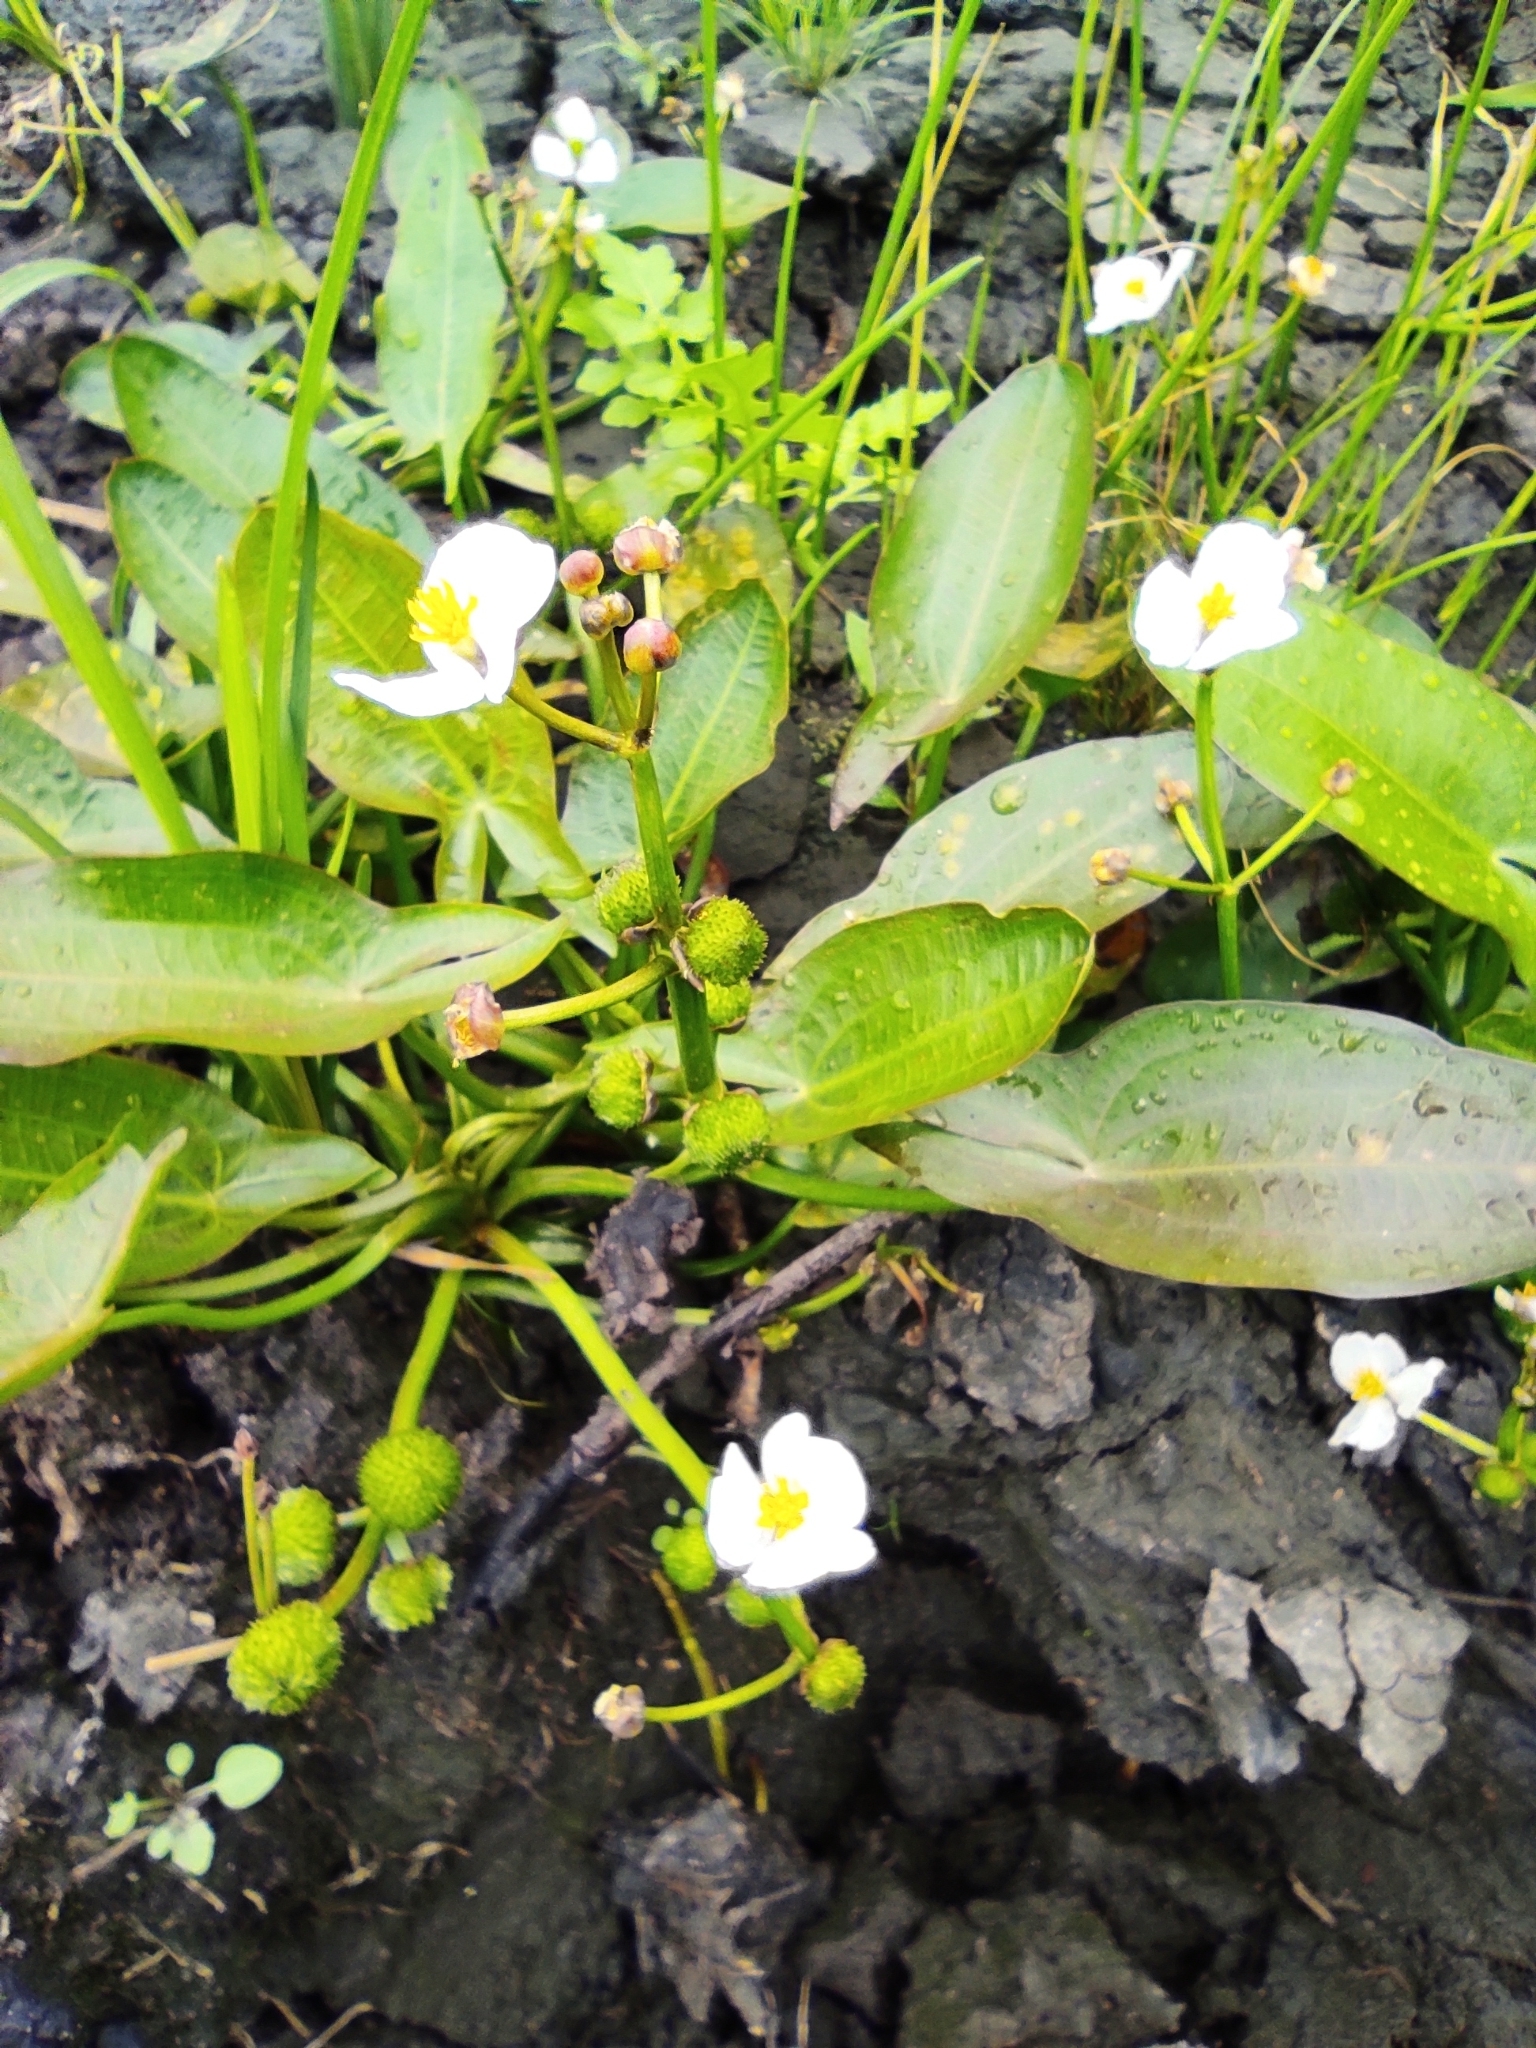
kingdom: Plantae
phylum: Tracheophyta
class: Liliopsida
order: Alismatales
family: Alismataceae
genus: Sagittaria
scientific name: Sagittaria natans
